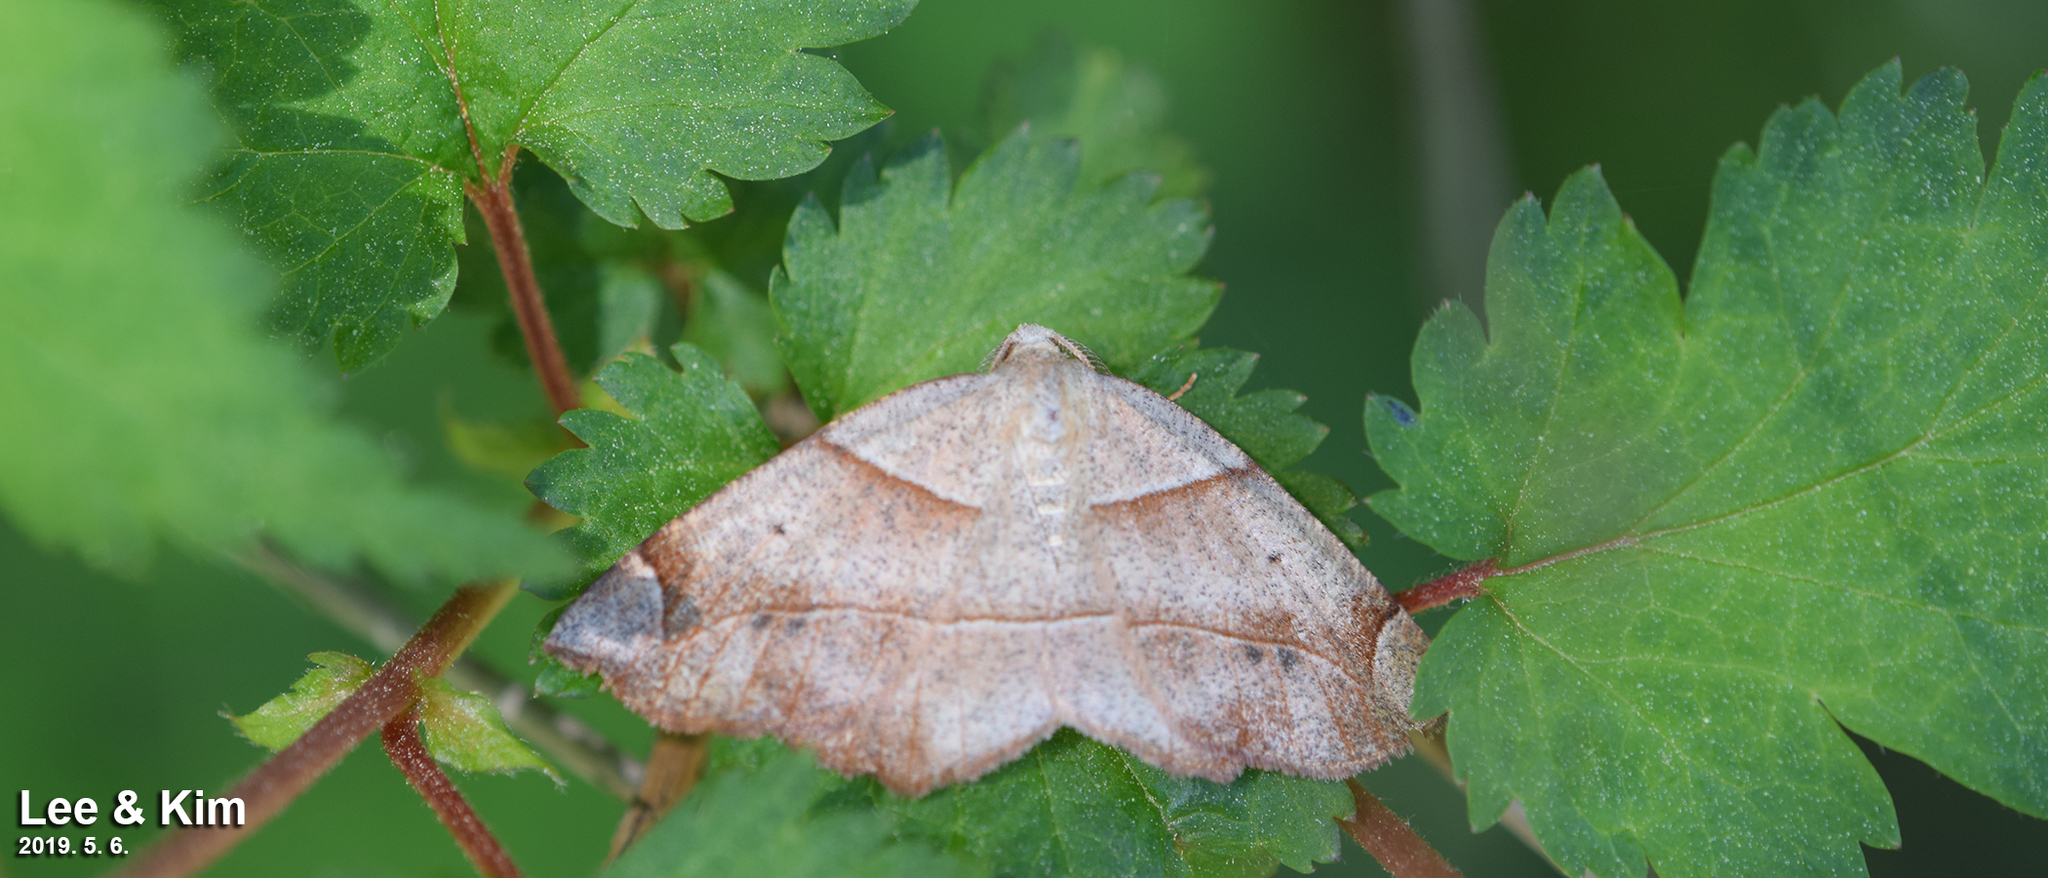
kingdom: Animalia
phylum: Arthropoda
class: Insecta
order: Lepidoptera
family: Geometridae
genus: Endropiodes
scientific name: Endropiodes indictinaria
